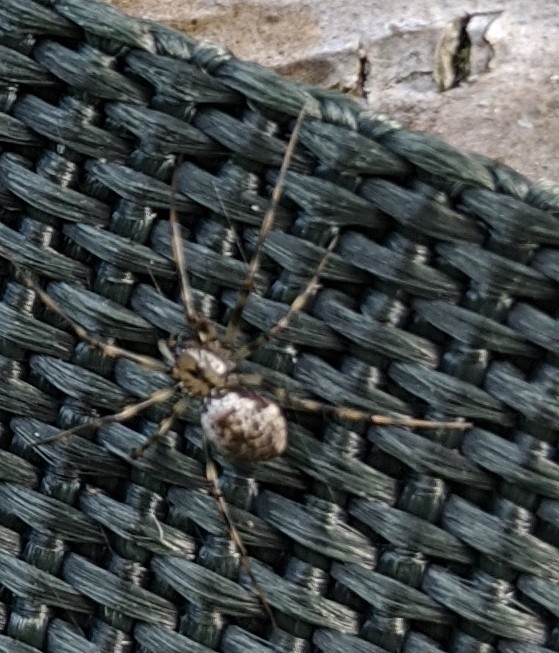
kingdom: Animalia
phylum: Arthropoda
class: Arachnida
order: Araneae
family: Linyphiidae
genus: Drapetisca
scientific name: Drapetisca alteranda
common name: Northern long-toothed sheetweaver
